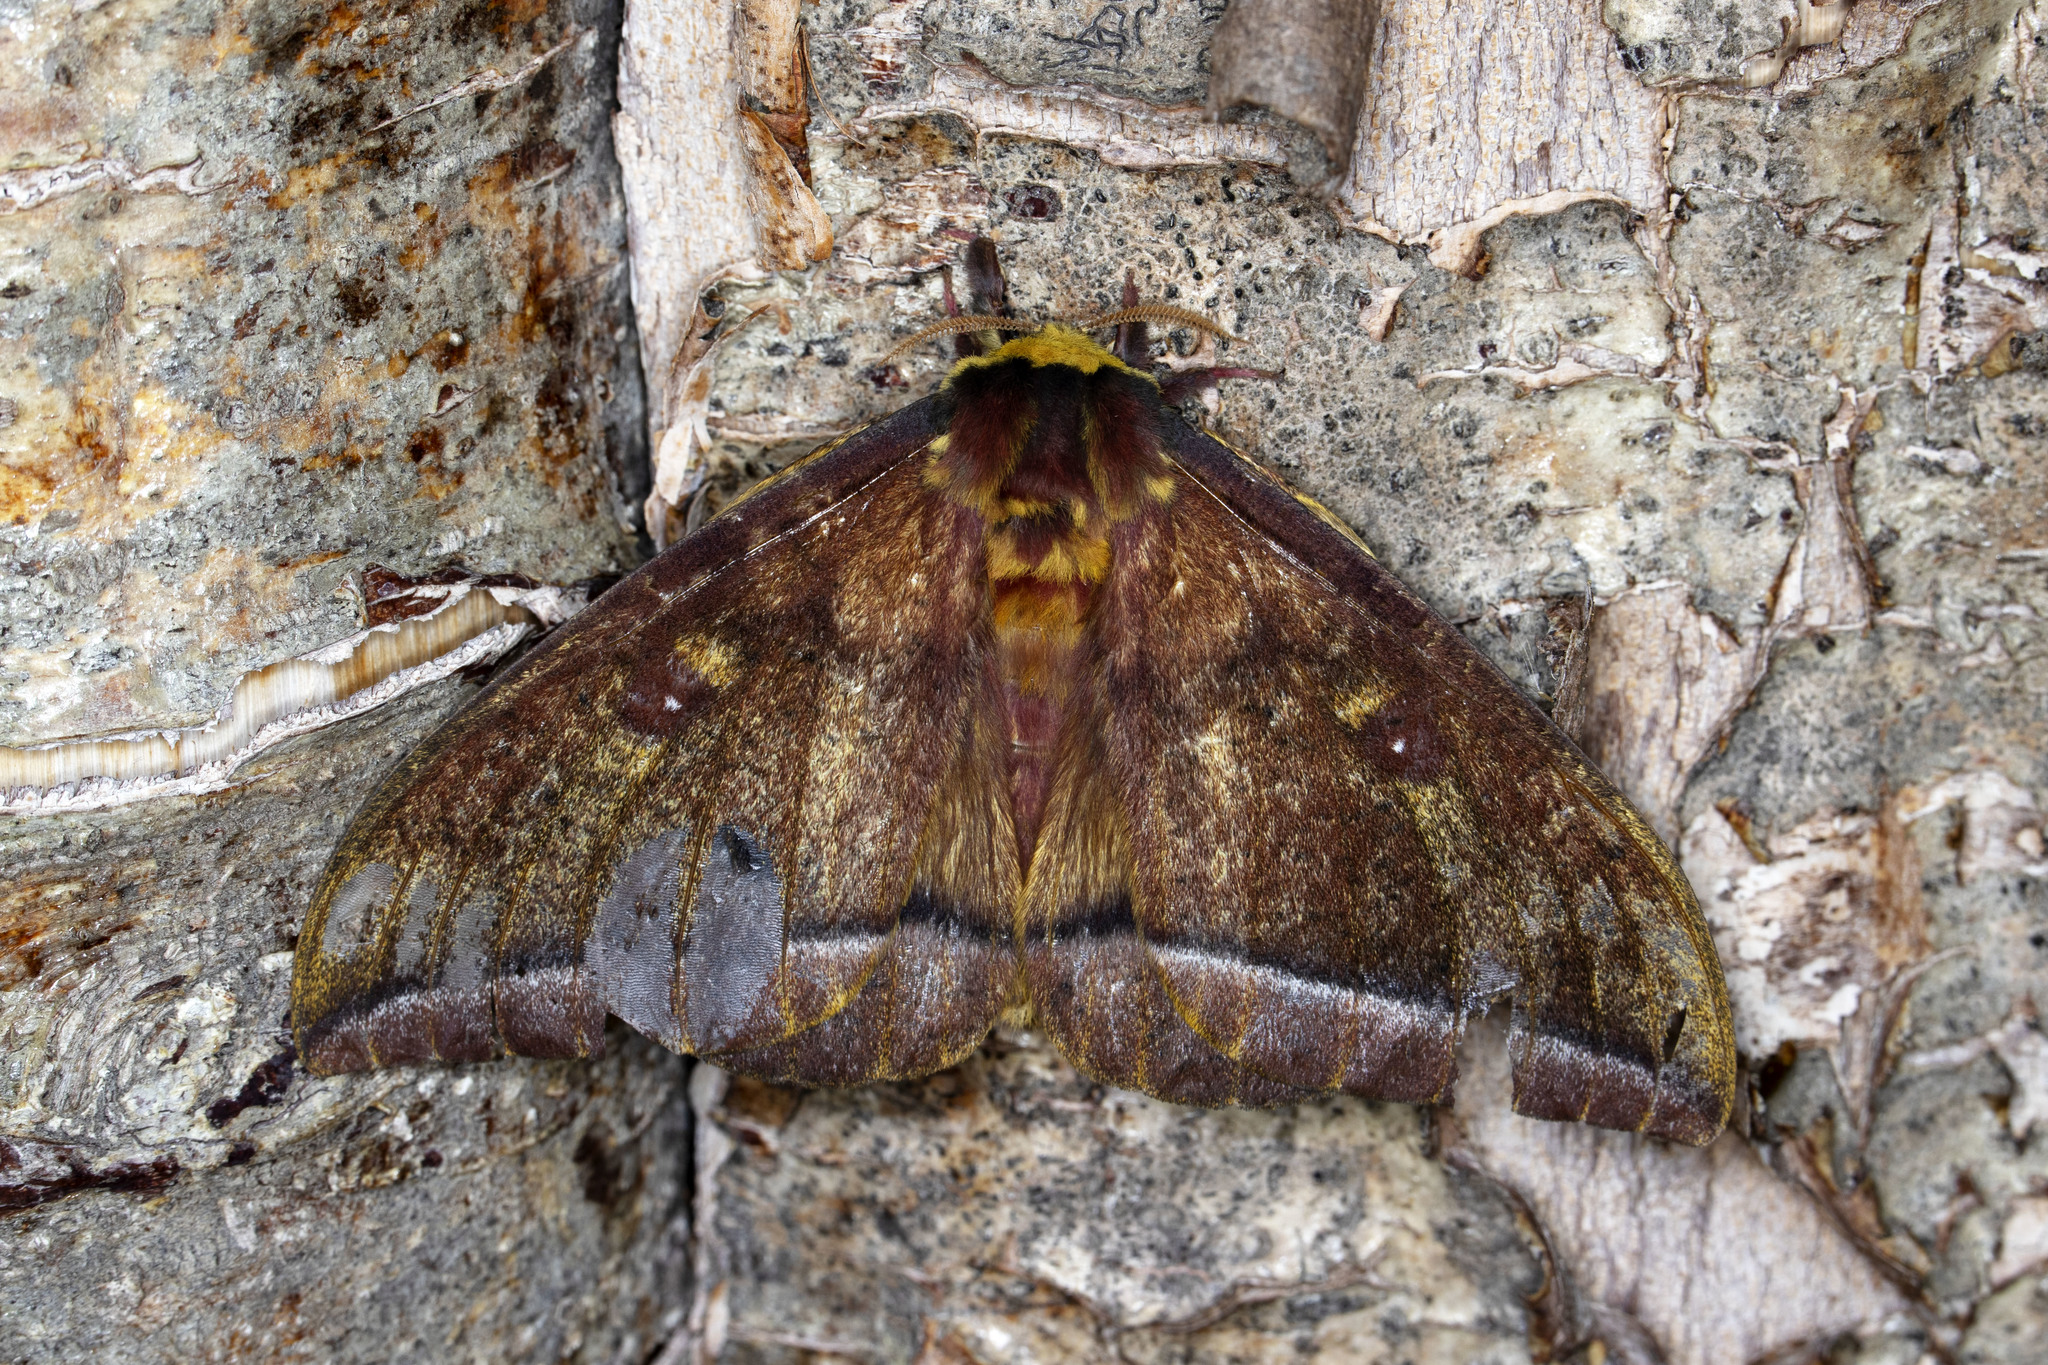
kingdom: Animalia
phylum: Arthropoda
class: Insecta
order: Lepidoptera
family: Saturniidae
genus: Bathyphlebia
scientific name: Bathyphlebia aglioides
